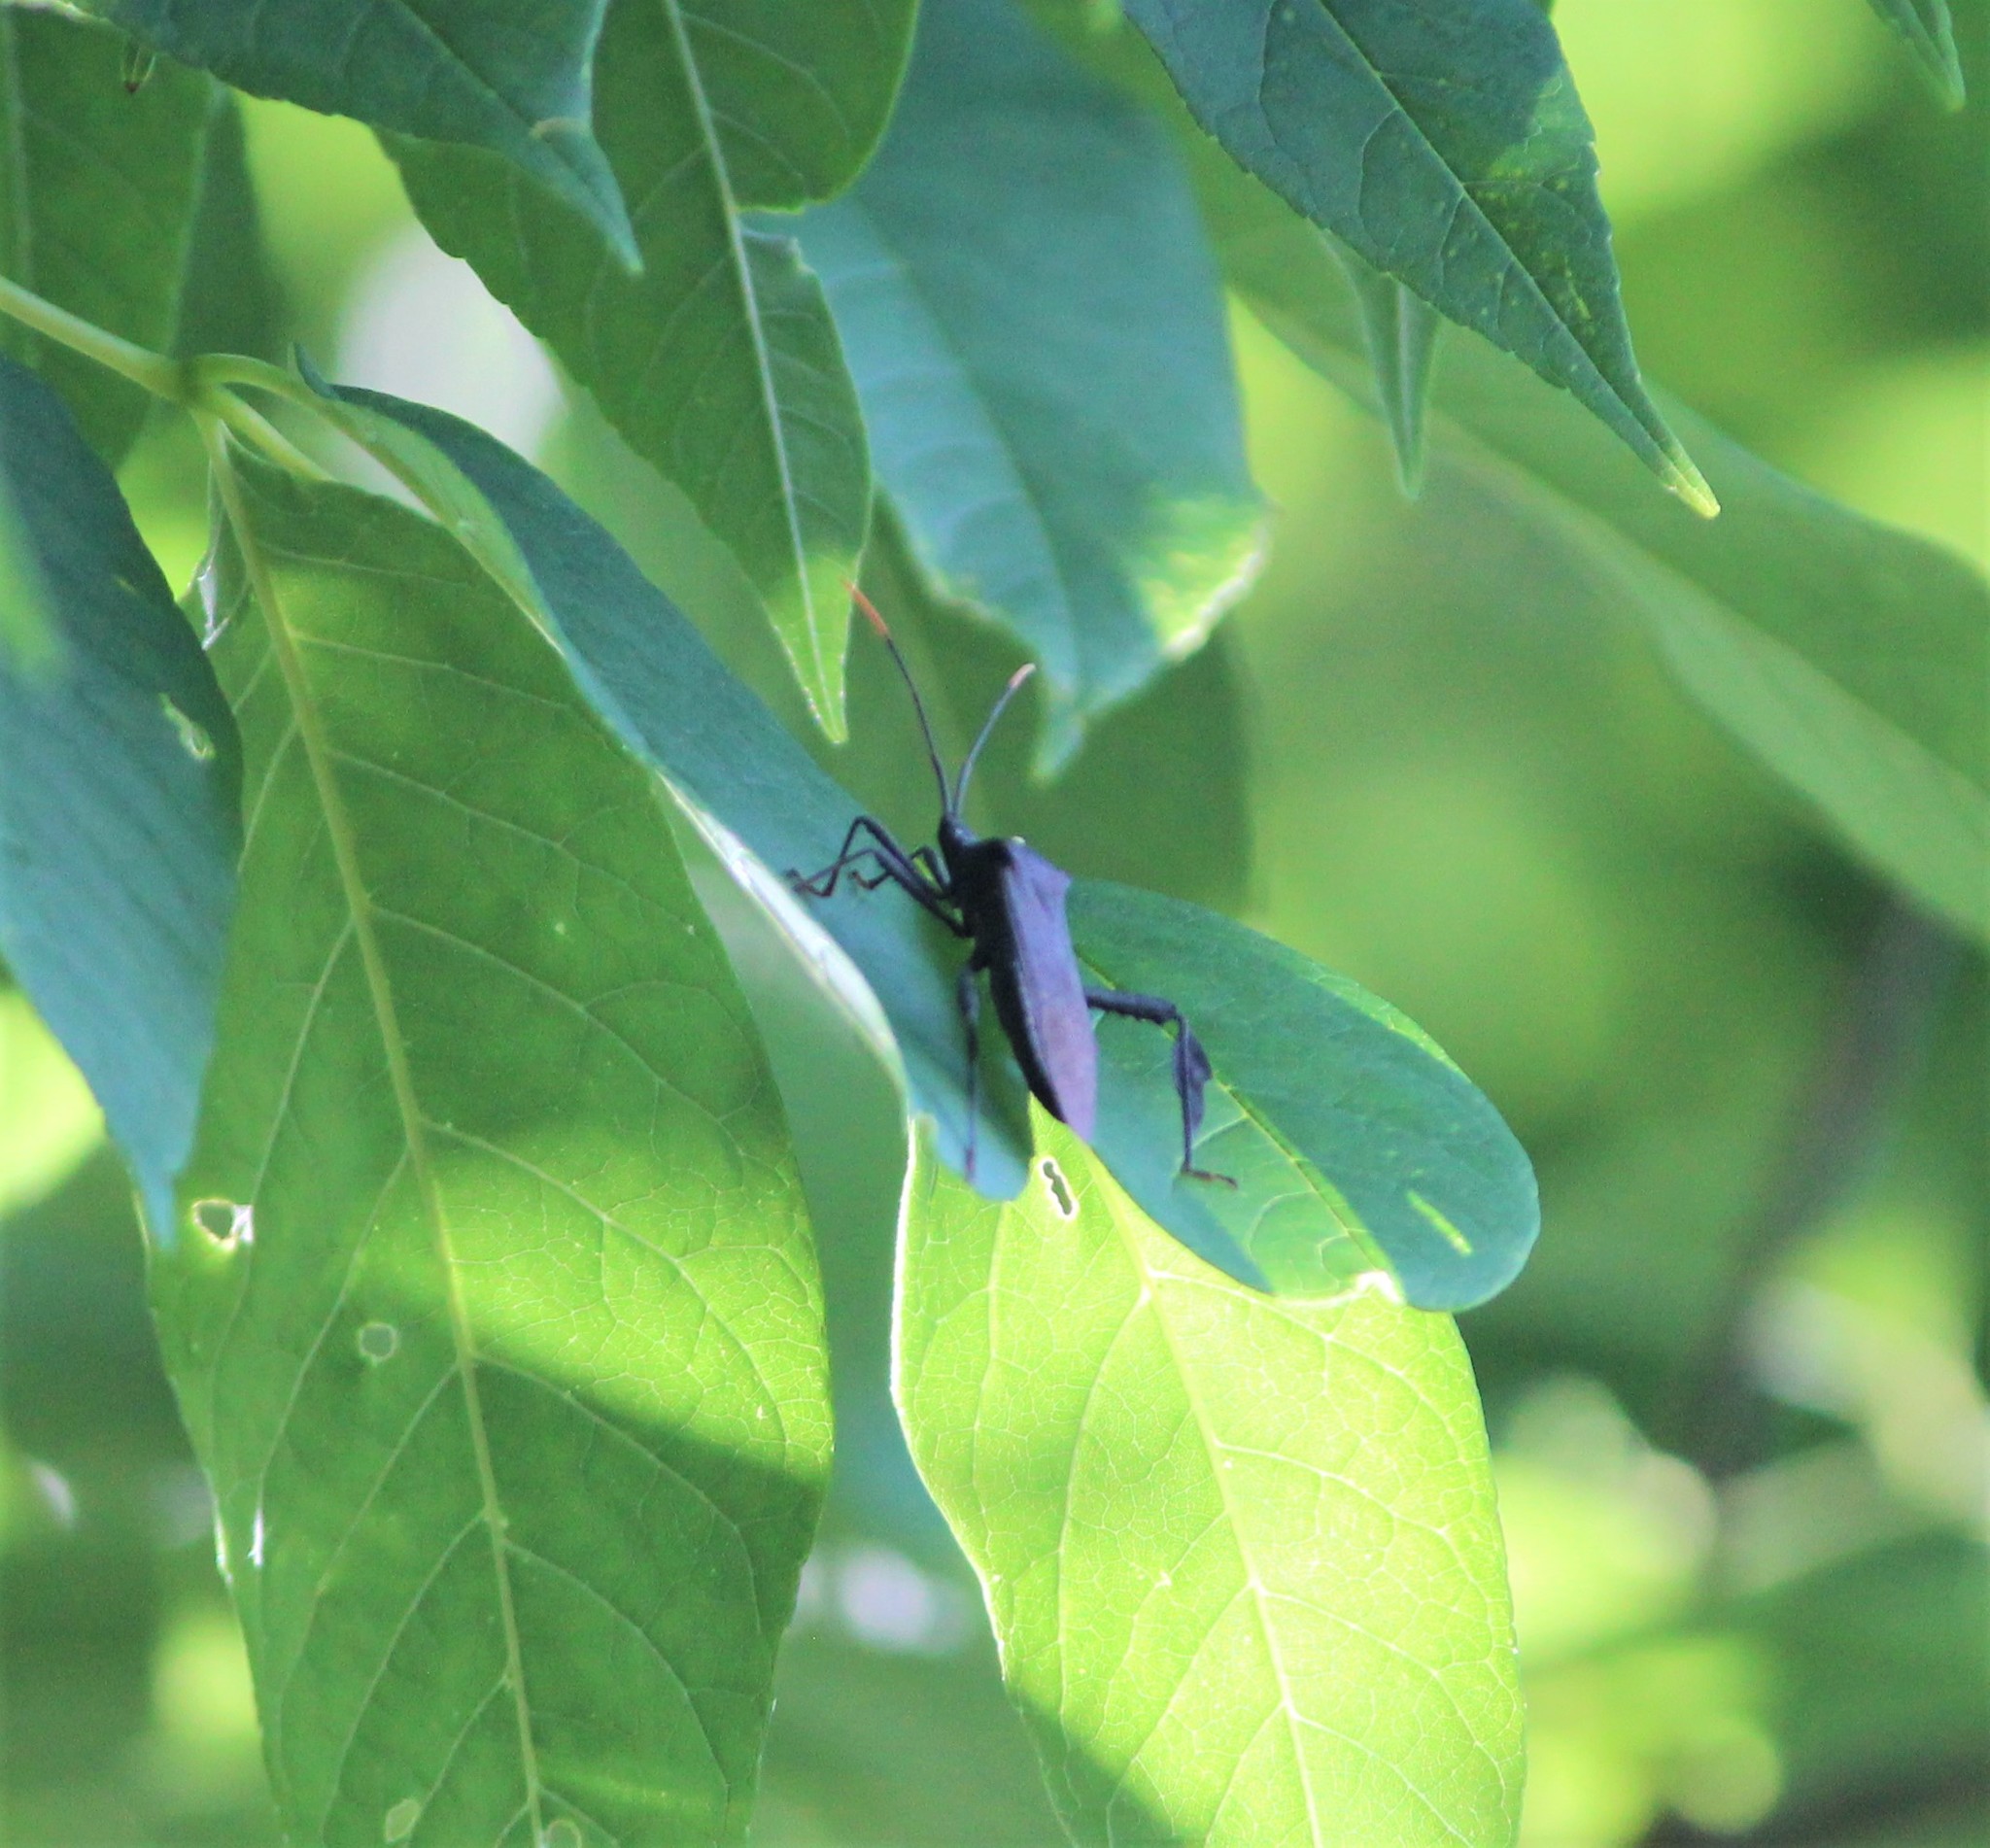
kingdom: Animalia
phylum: Arthropoda
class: Insecta
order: Hemiptera
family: Coreidae
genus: Acanthocephala
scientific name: Acanthocephala terminalis
